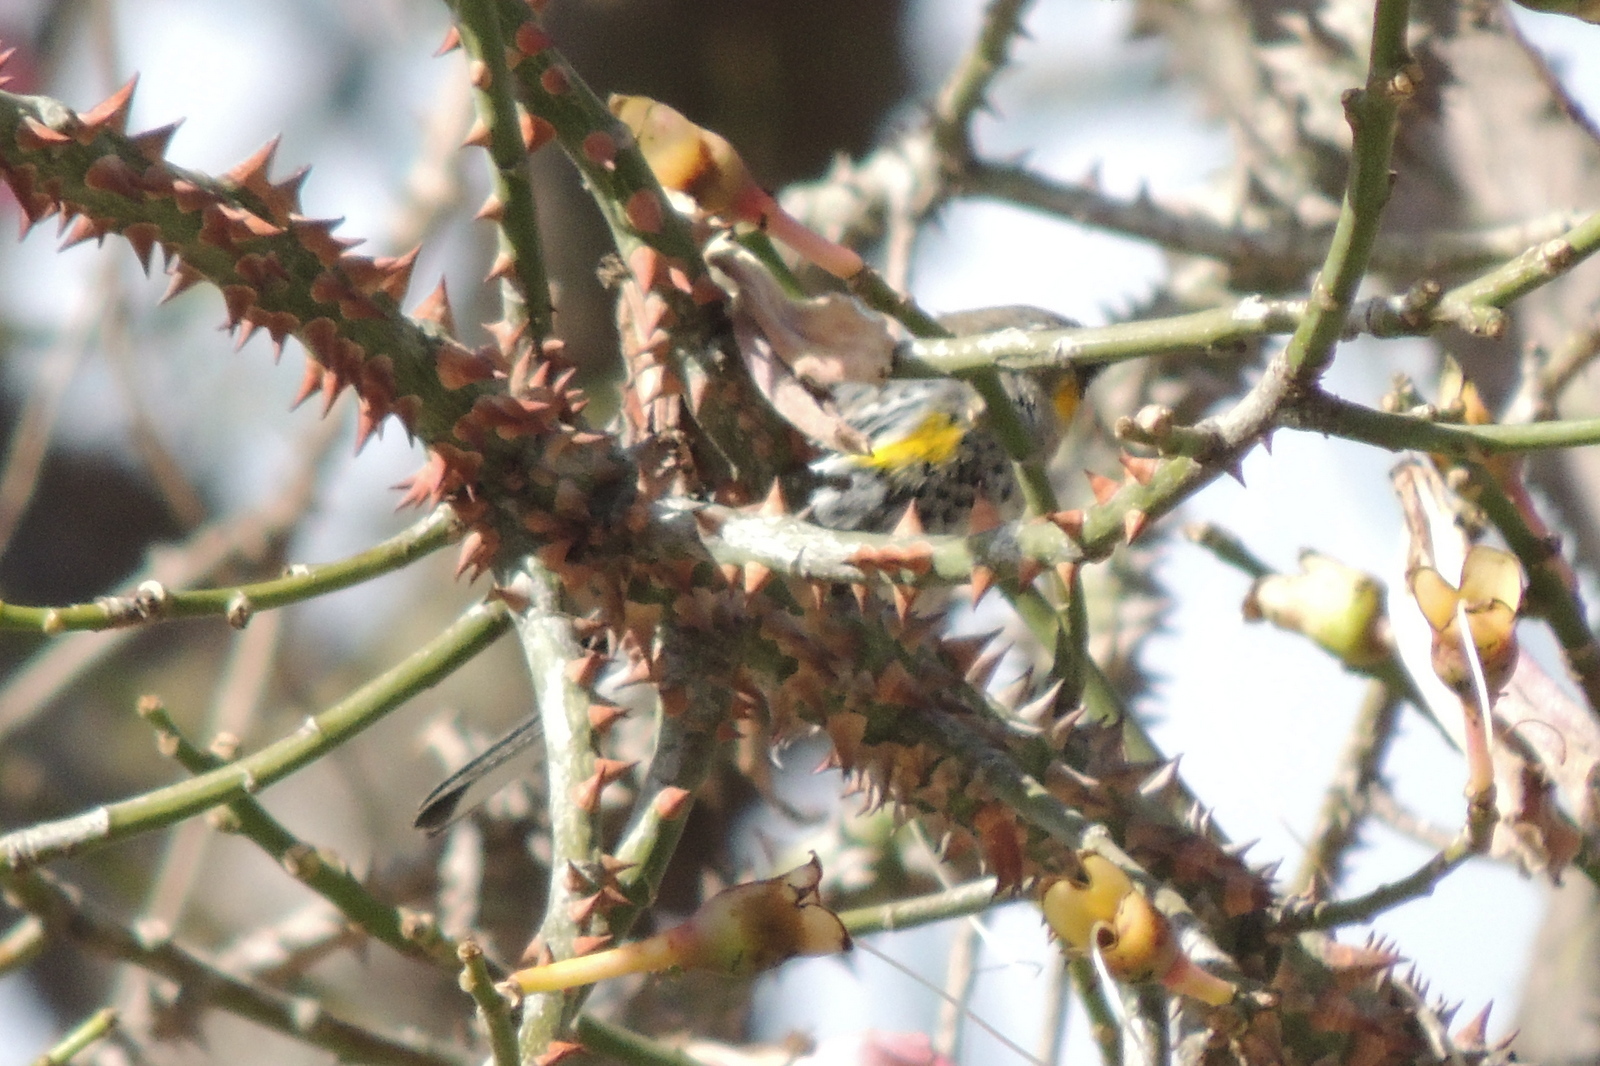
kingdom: Animalia
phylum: Chordata
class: Aves
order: Passeriformes
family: Parulidae
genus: Setophaga
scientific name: Setophaga coronata
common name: Myrtle warbler
